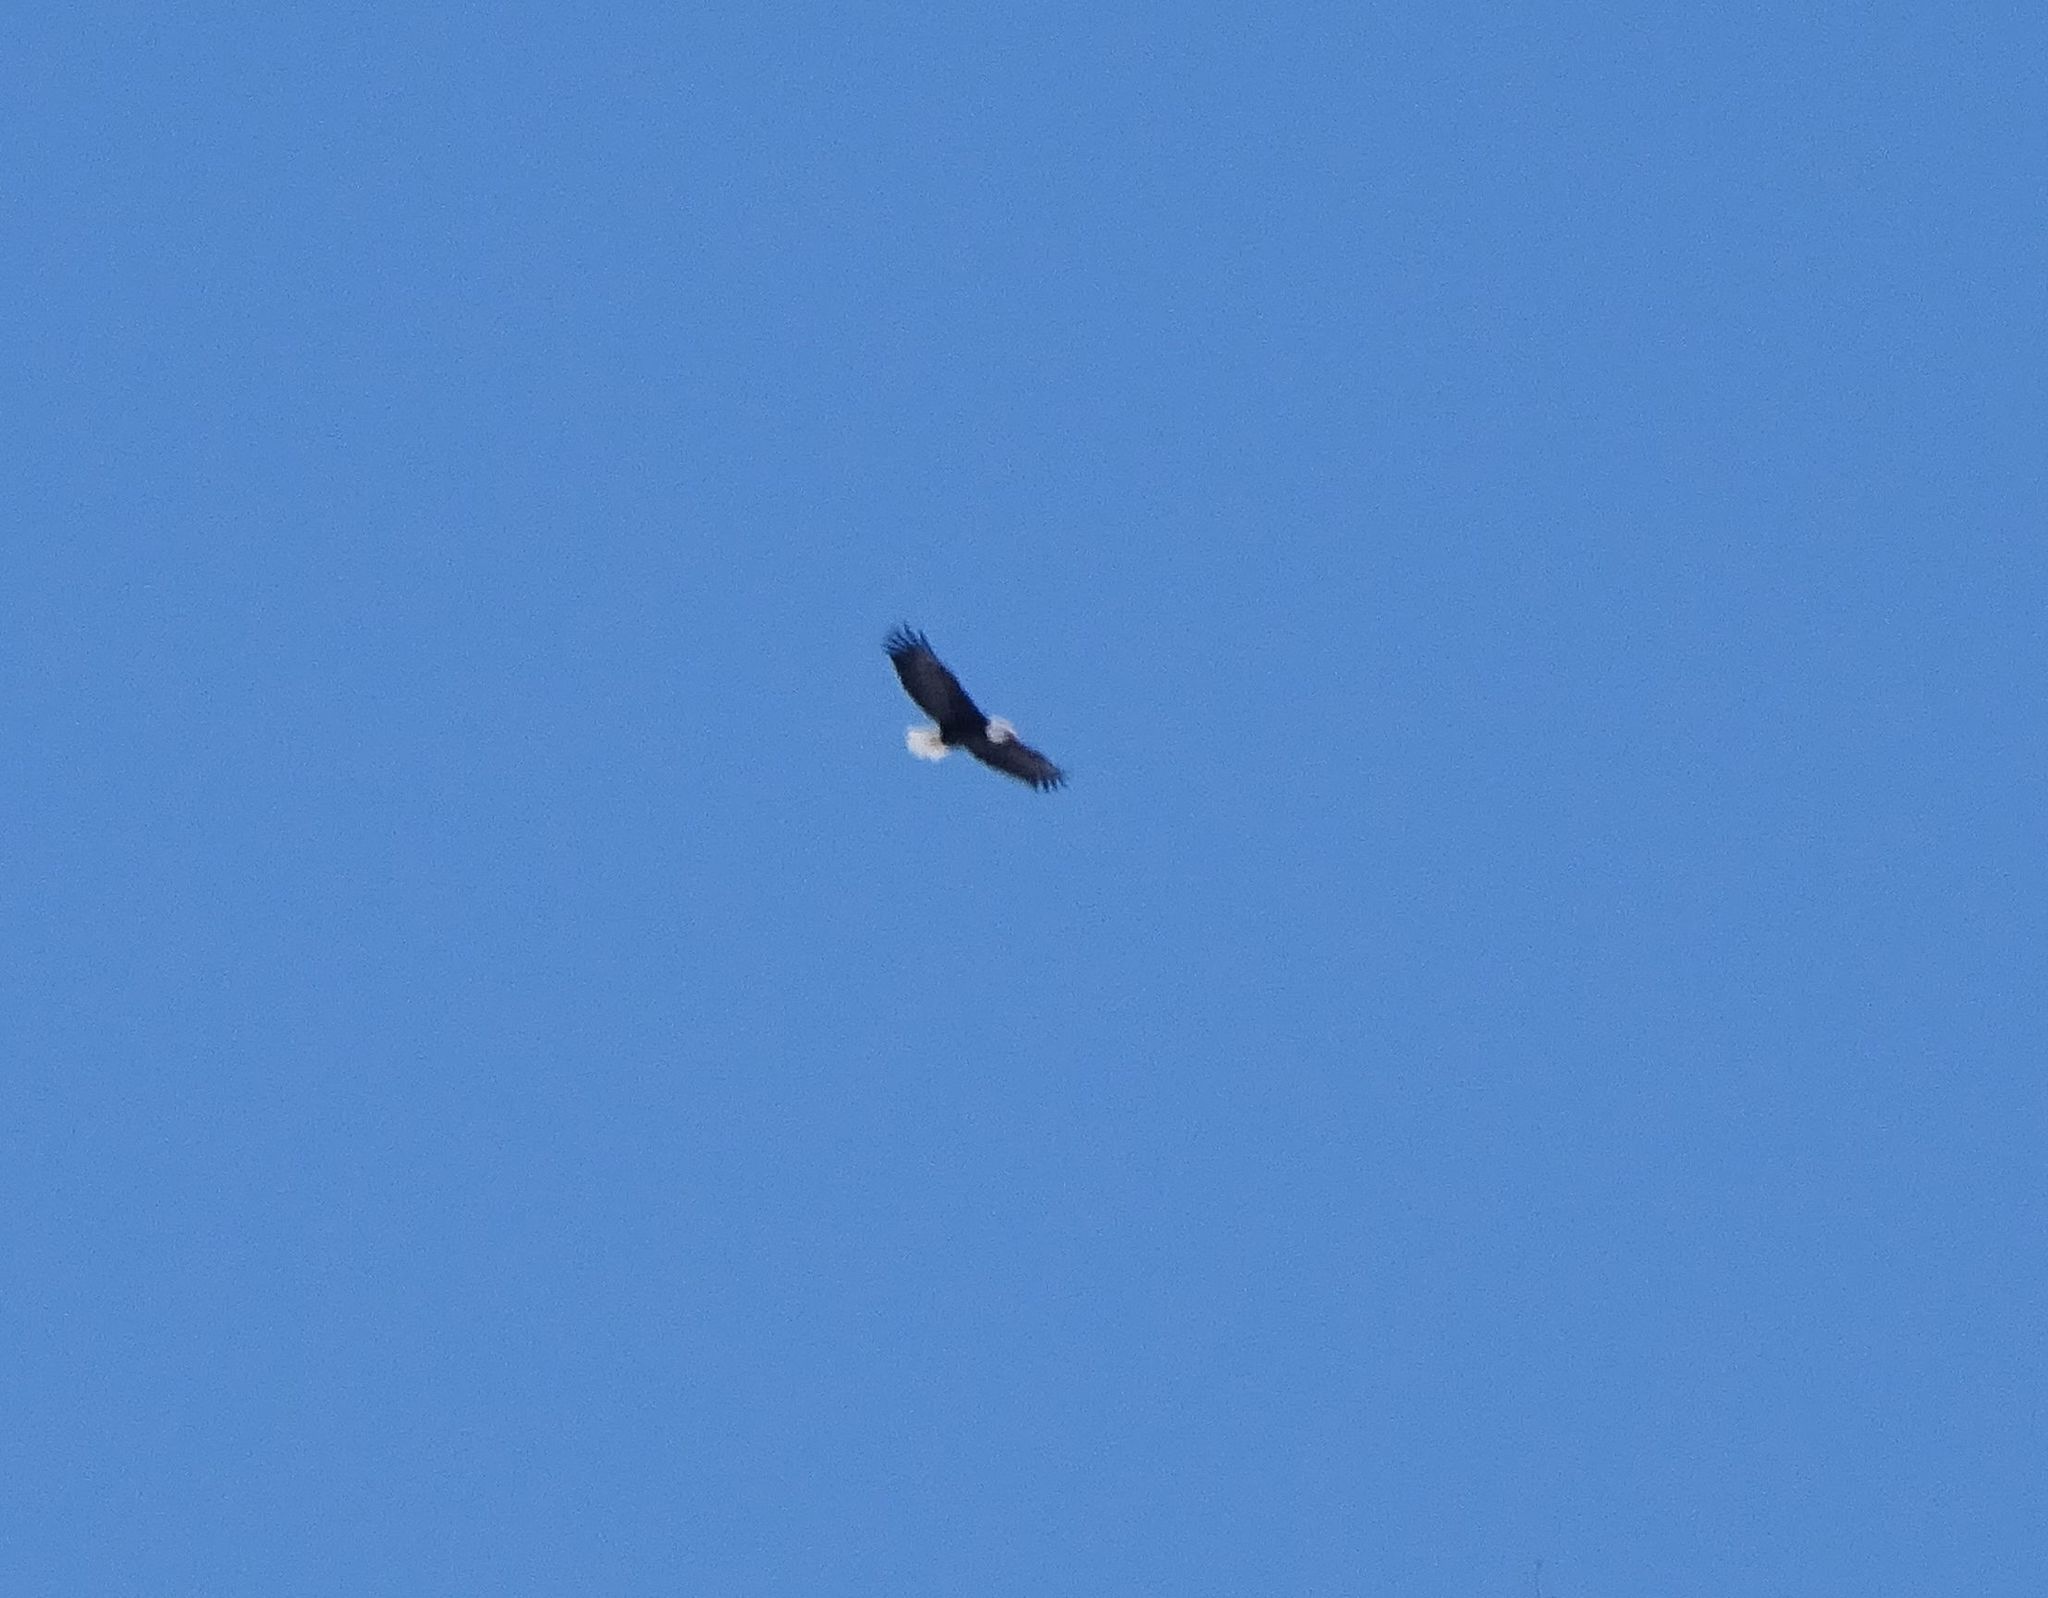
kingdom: Animalia
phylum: Chordata
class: Aves
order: Accipitriformes
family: Accipitridae
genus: Haliaeetus
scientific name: Haliaeetus leucocephalus
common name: Bald eagle
